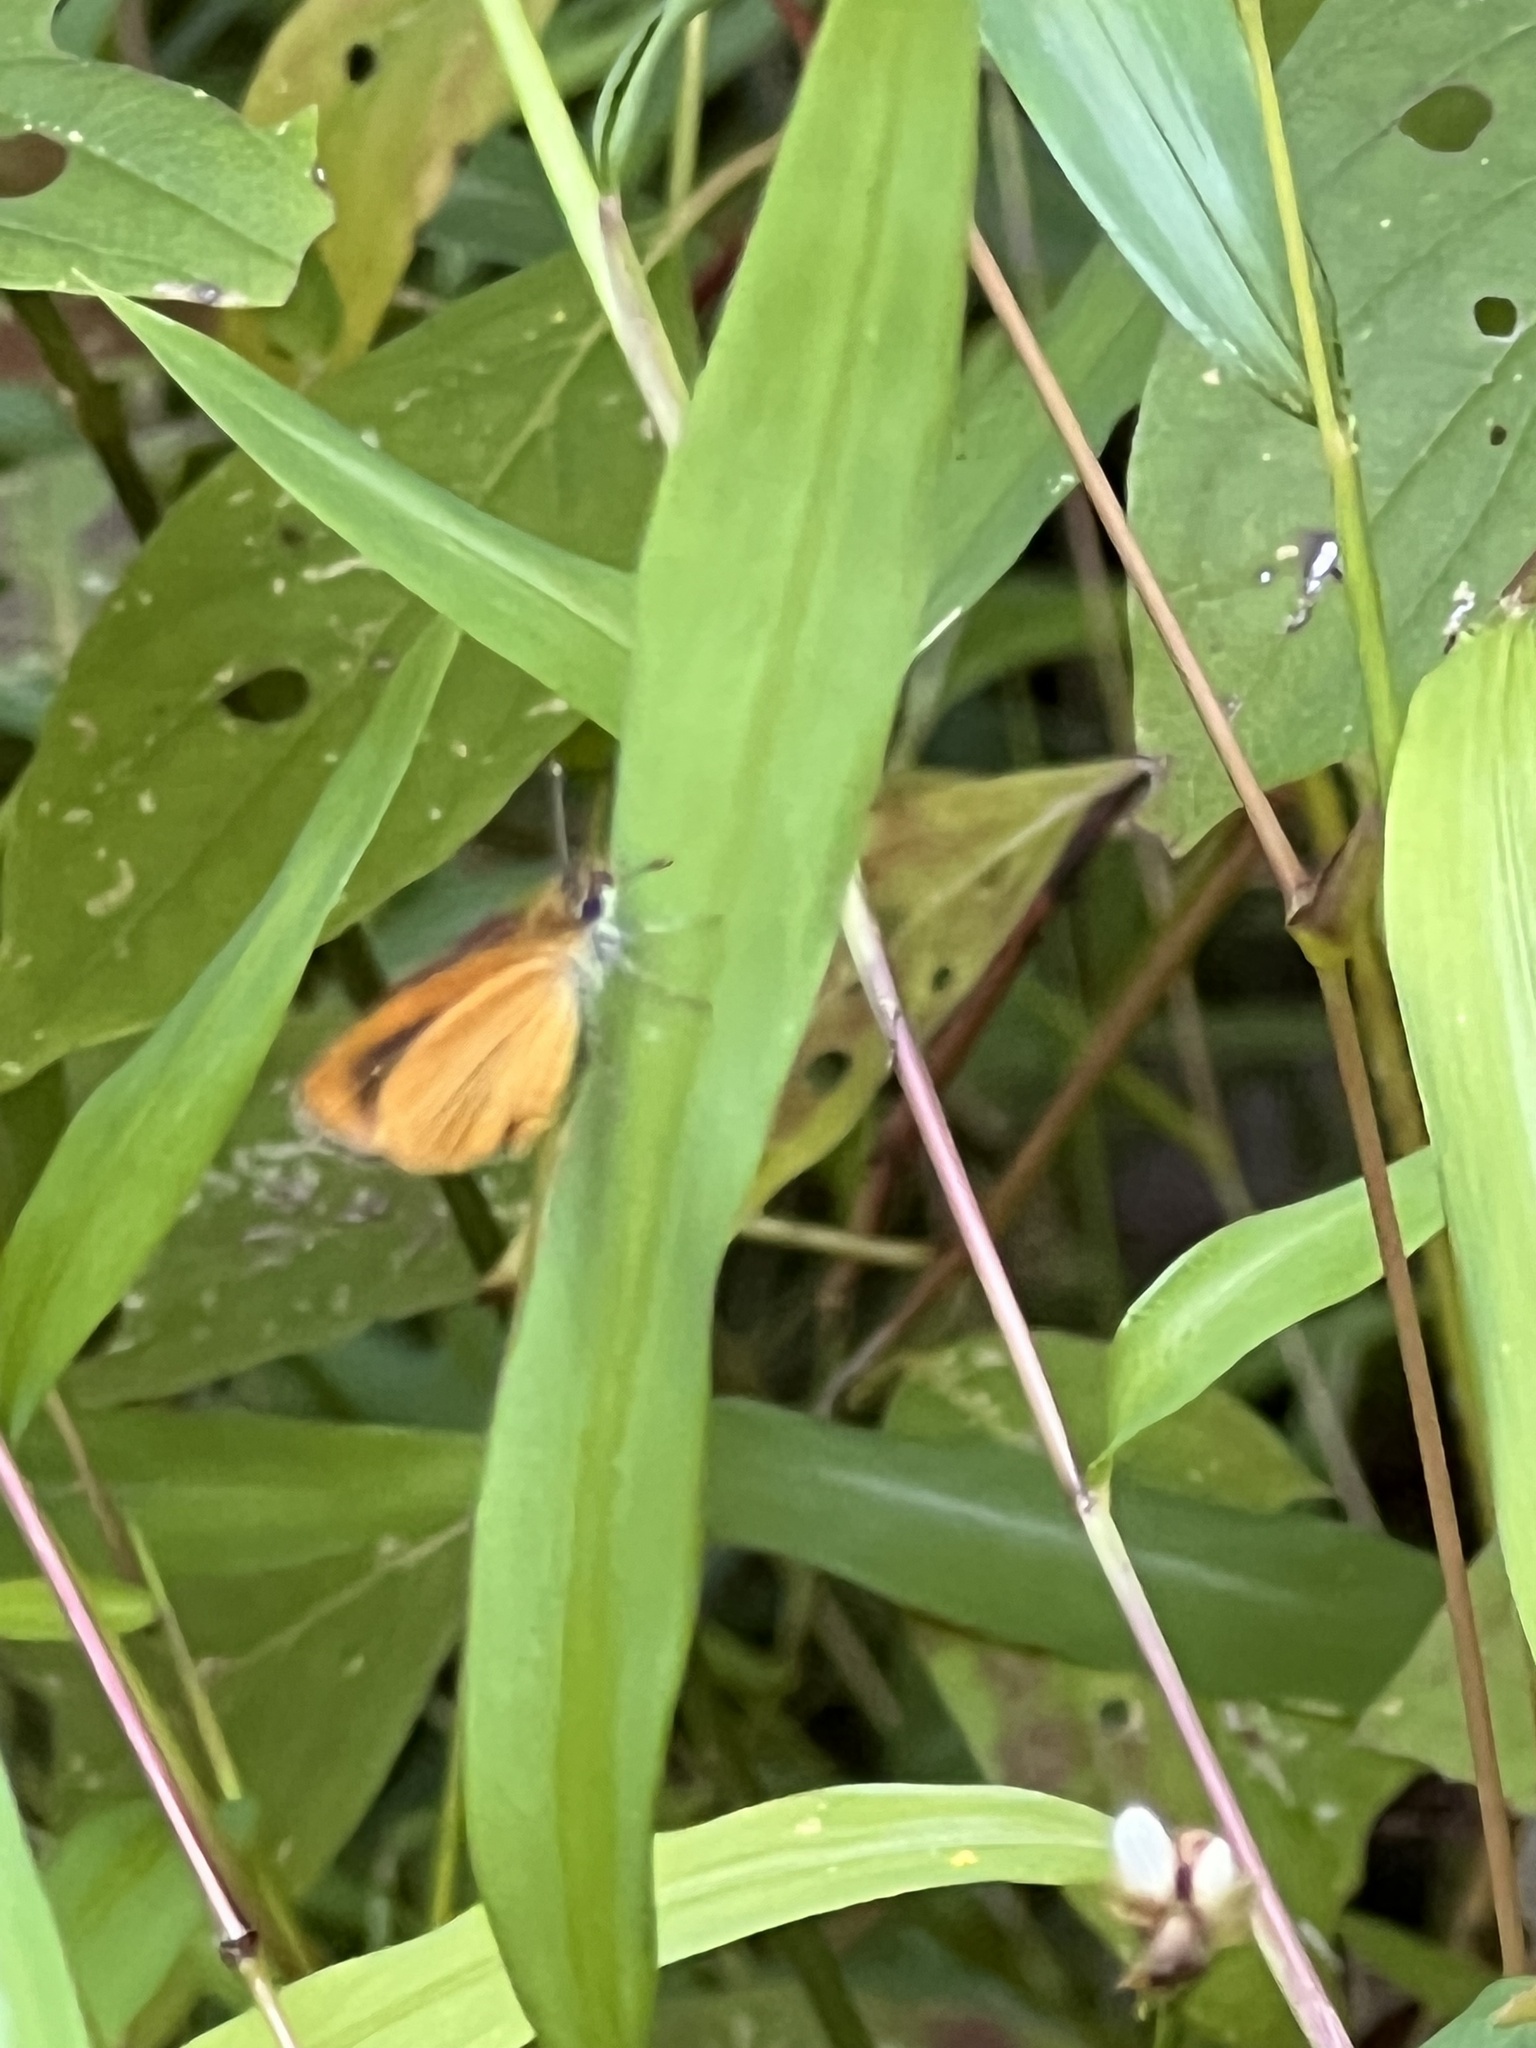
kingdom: Animalia
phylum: Arthropoda
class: Insecta
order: Lepidoptera
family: Hesperiidae
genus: Ancyloxypha
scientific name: Ancyloxypha numitor
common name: Least skipper
